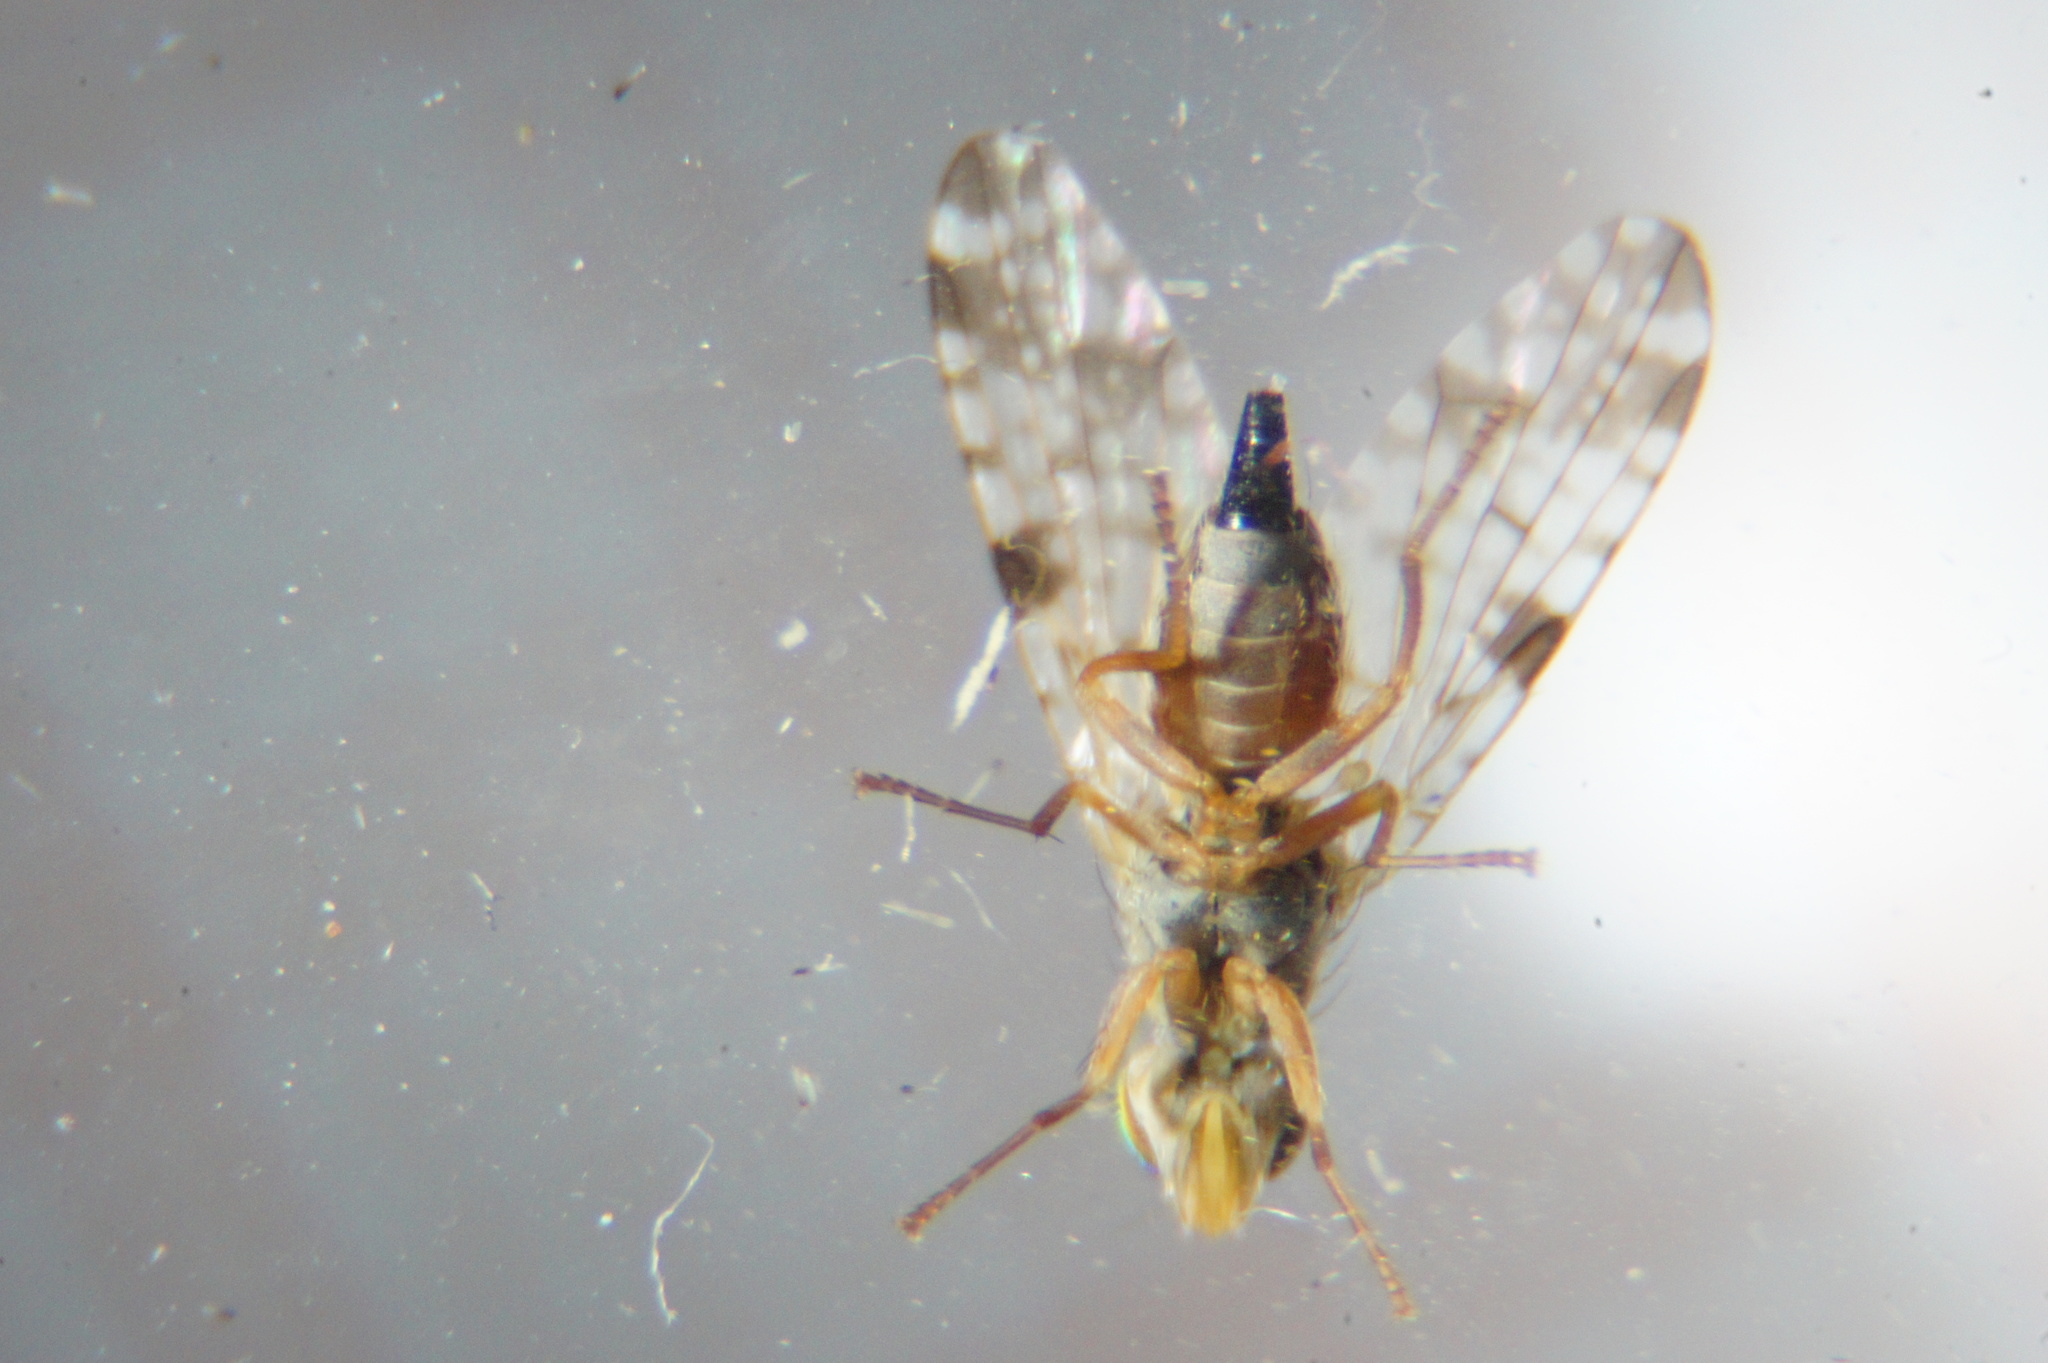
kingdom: Animalia
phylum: Arthropoda
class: Insecta
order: Diptera
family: Tephritidae
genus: Dioxyna
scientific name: Dioxyna bidentis
